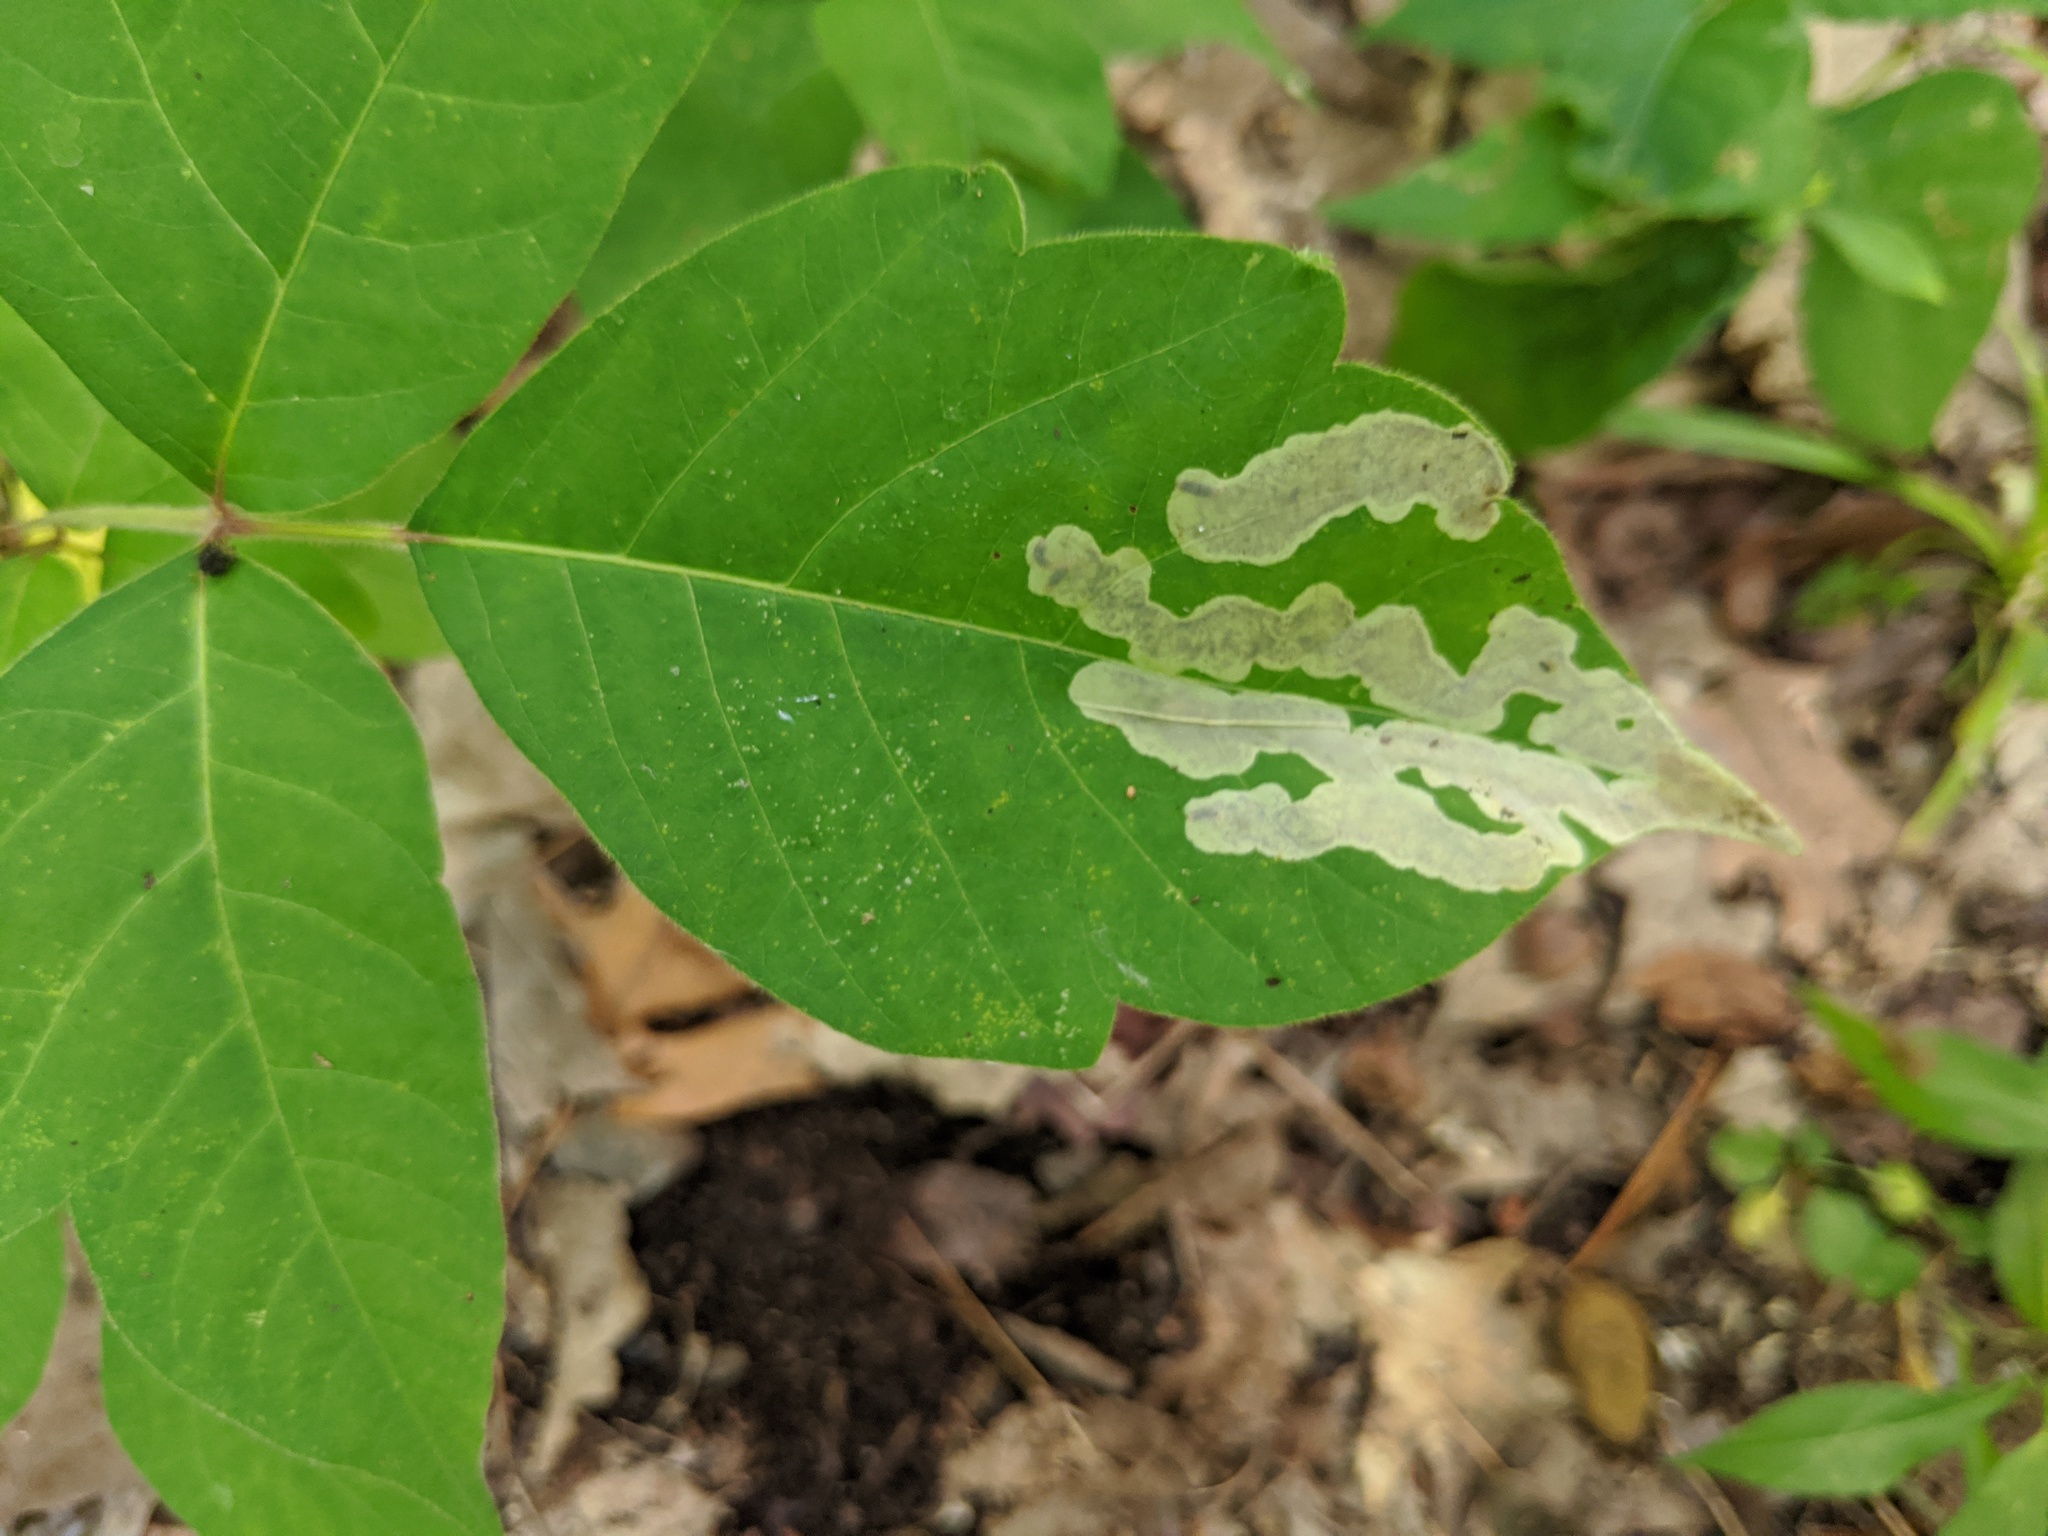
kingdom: Animalia
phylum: Arthropoda
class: Insecta
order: Lepidoptera
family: Gracillariidae
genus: Cameraria
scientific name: Cameraria guttifinitella
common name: Poison ivy leaf-miner moth
